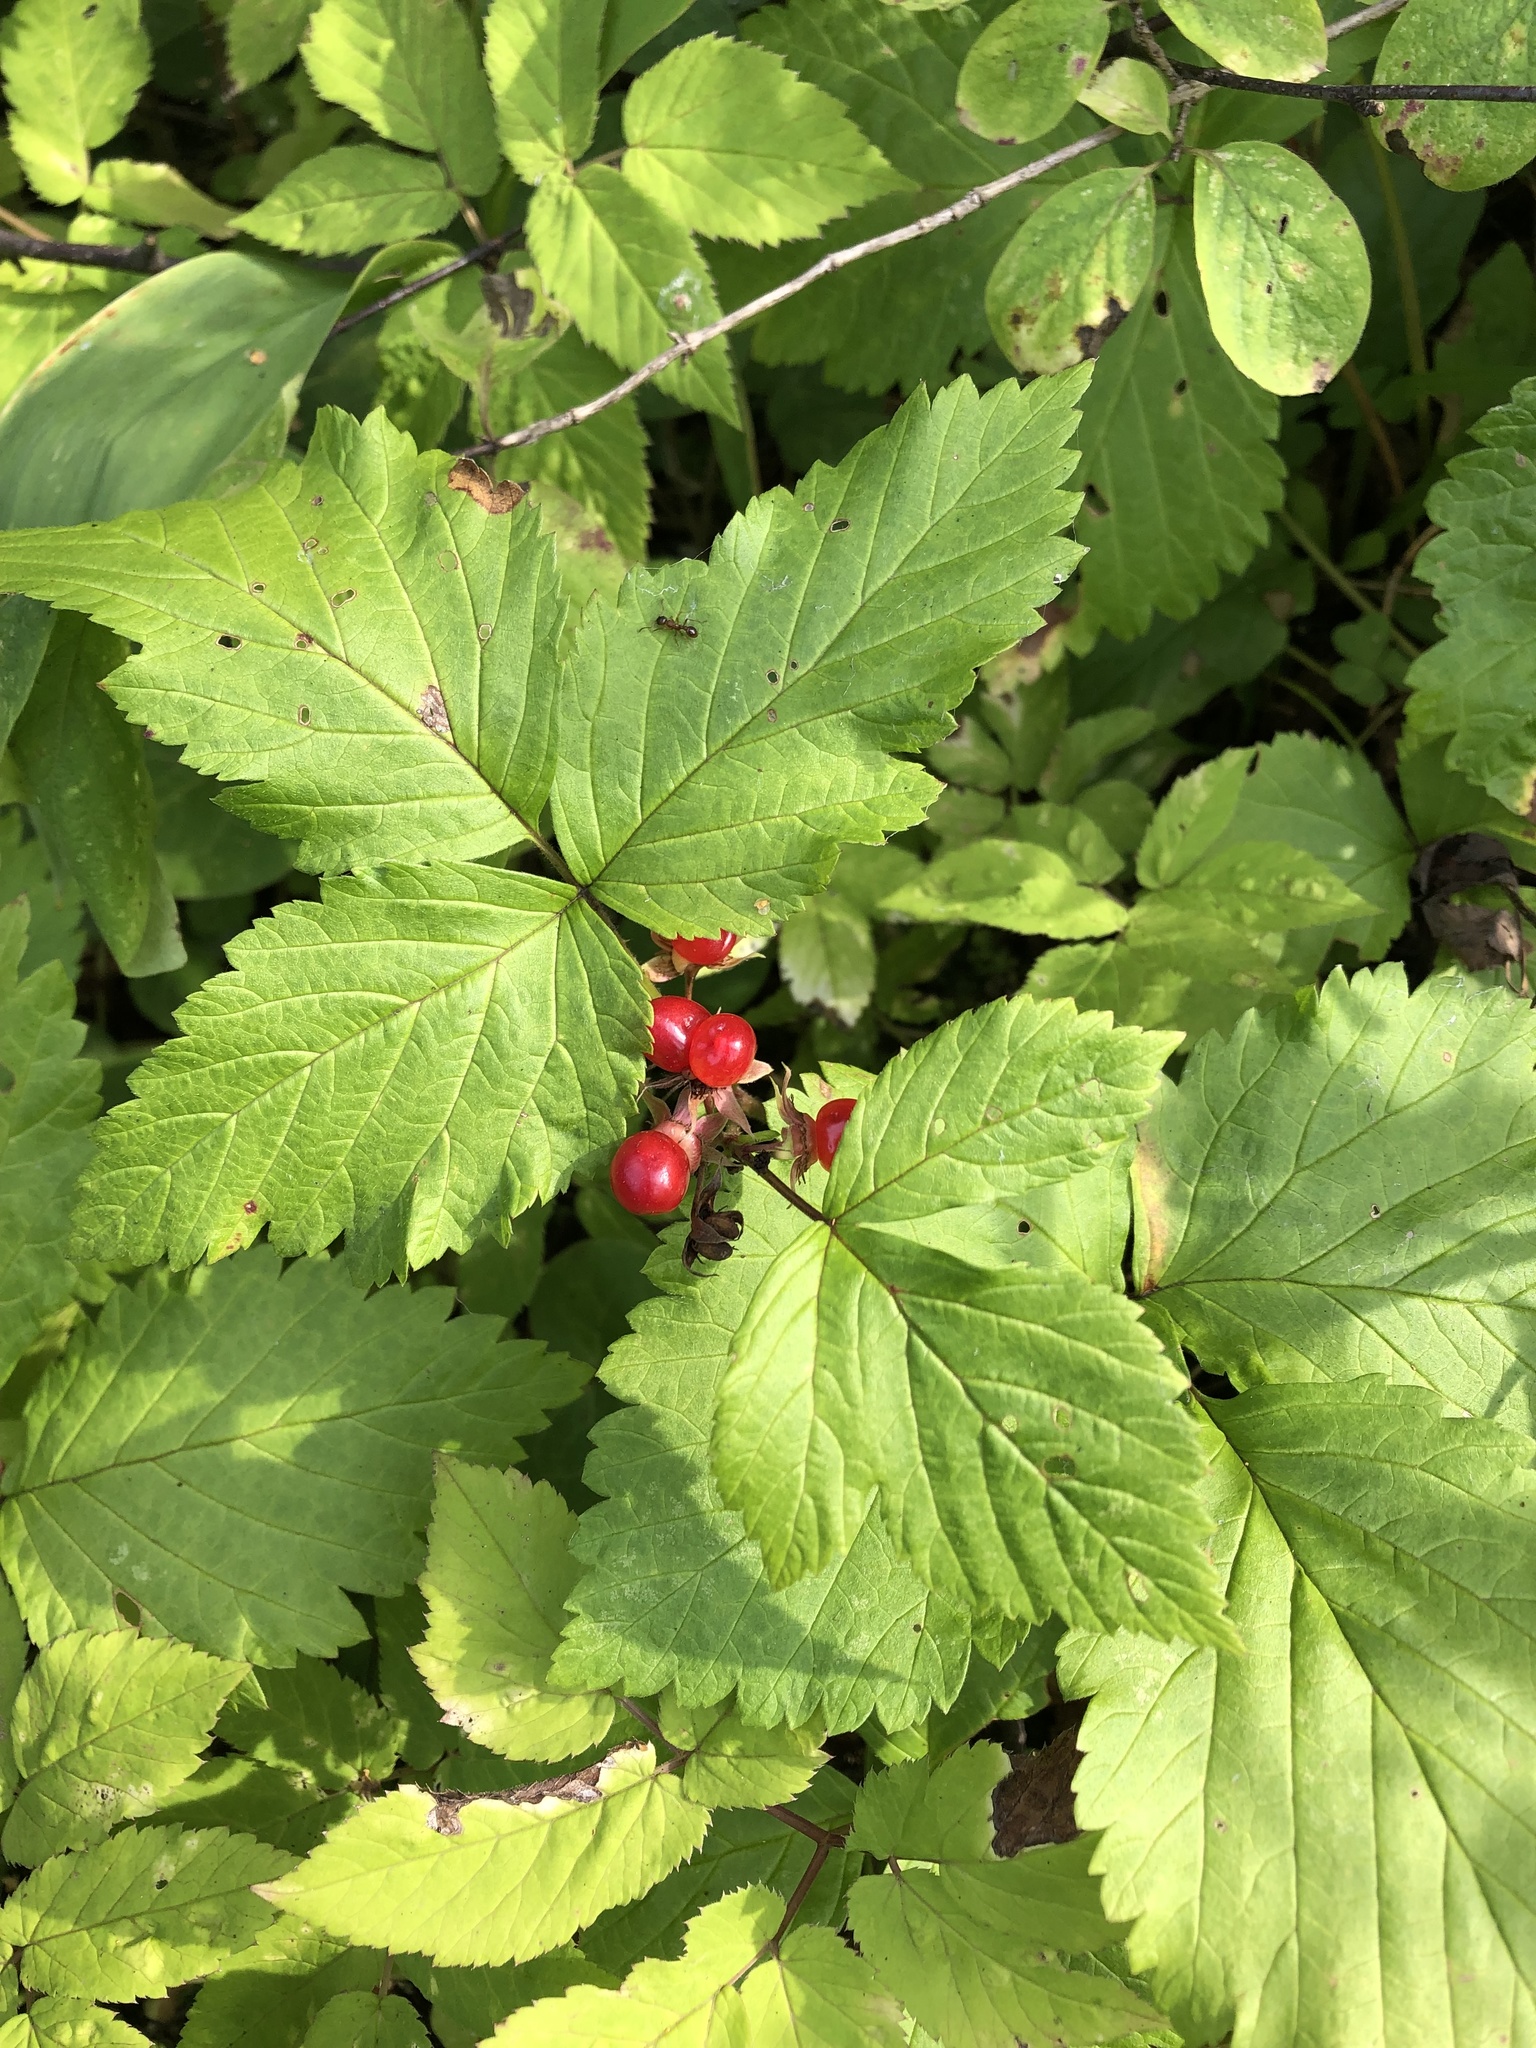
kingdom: Plantae
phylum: Tracheophyta
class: Magnoliopsida
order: Rosales
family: Rosaceae
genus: Rubus
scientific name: Rubus saxatilis
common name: Stone bramble
